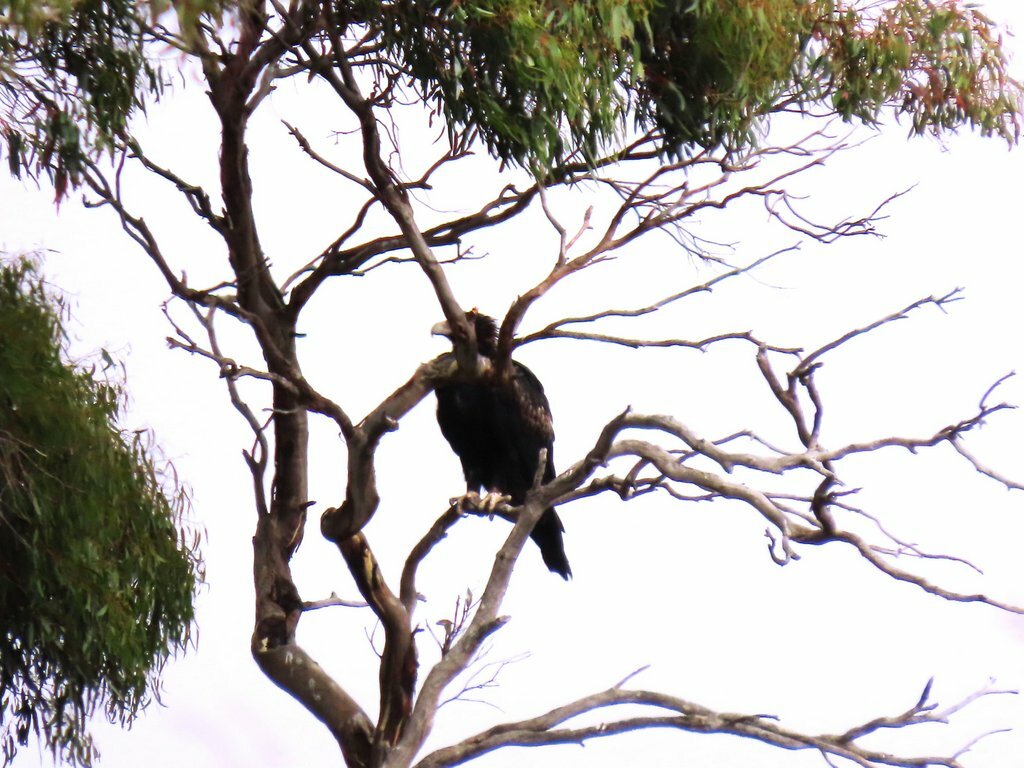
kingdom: Animalia
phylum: Chordata
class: Aves
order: Accipitriformes
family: Accipitridae
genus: Aquila
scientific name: Aquila audax
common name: Wedge-tailed eagle
